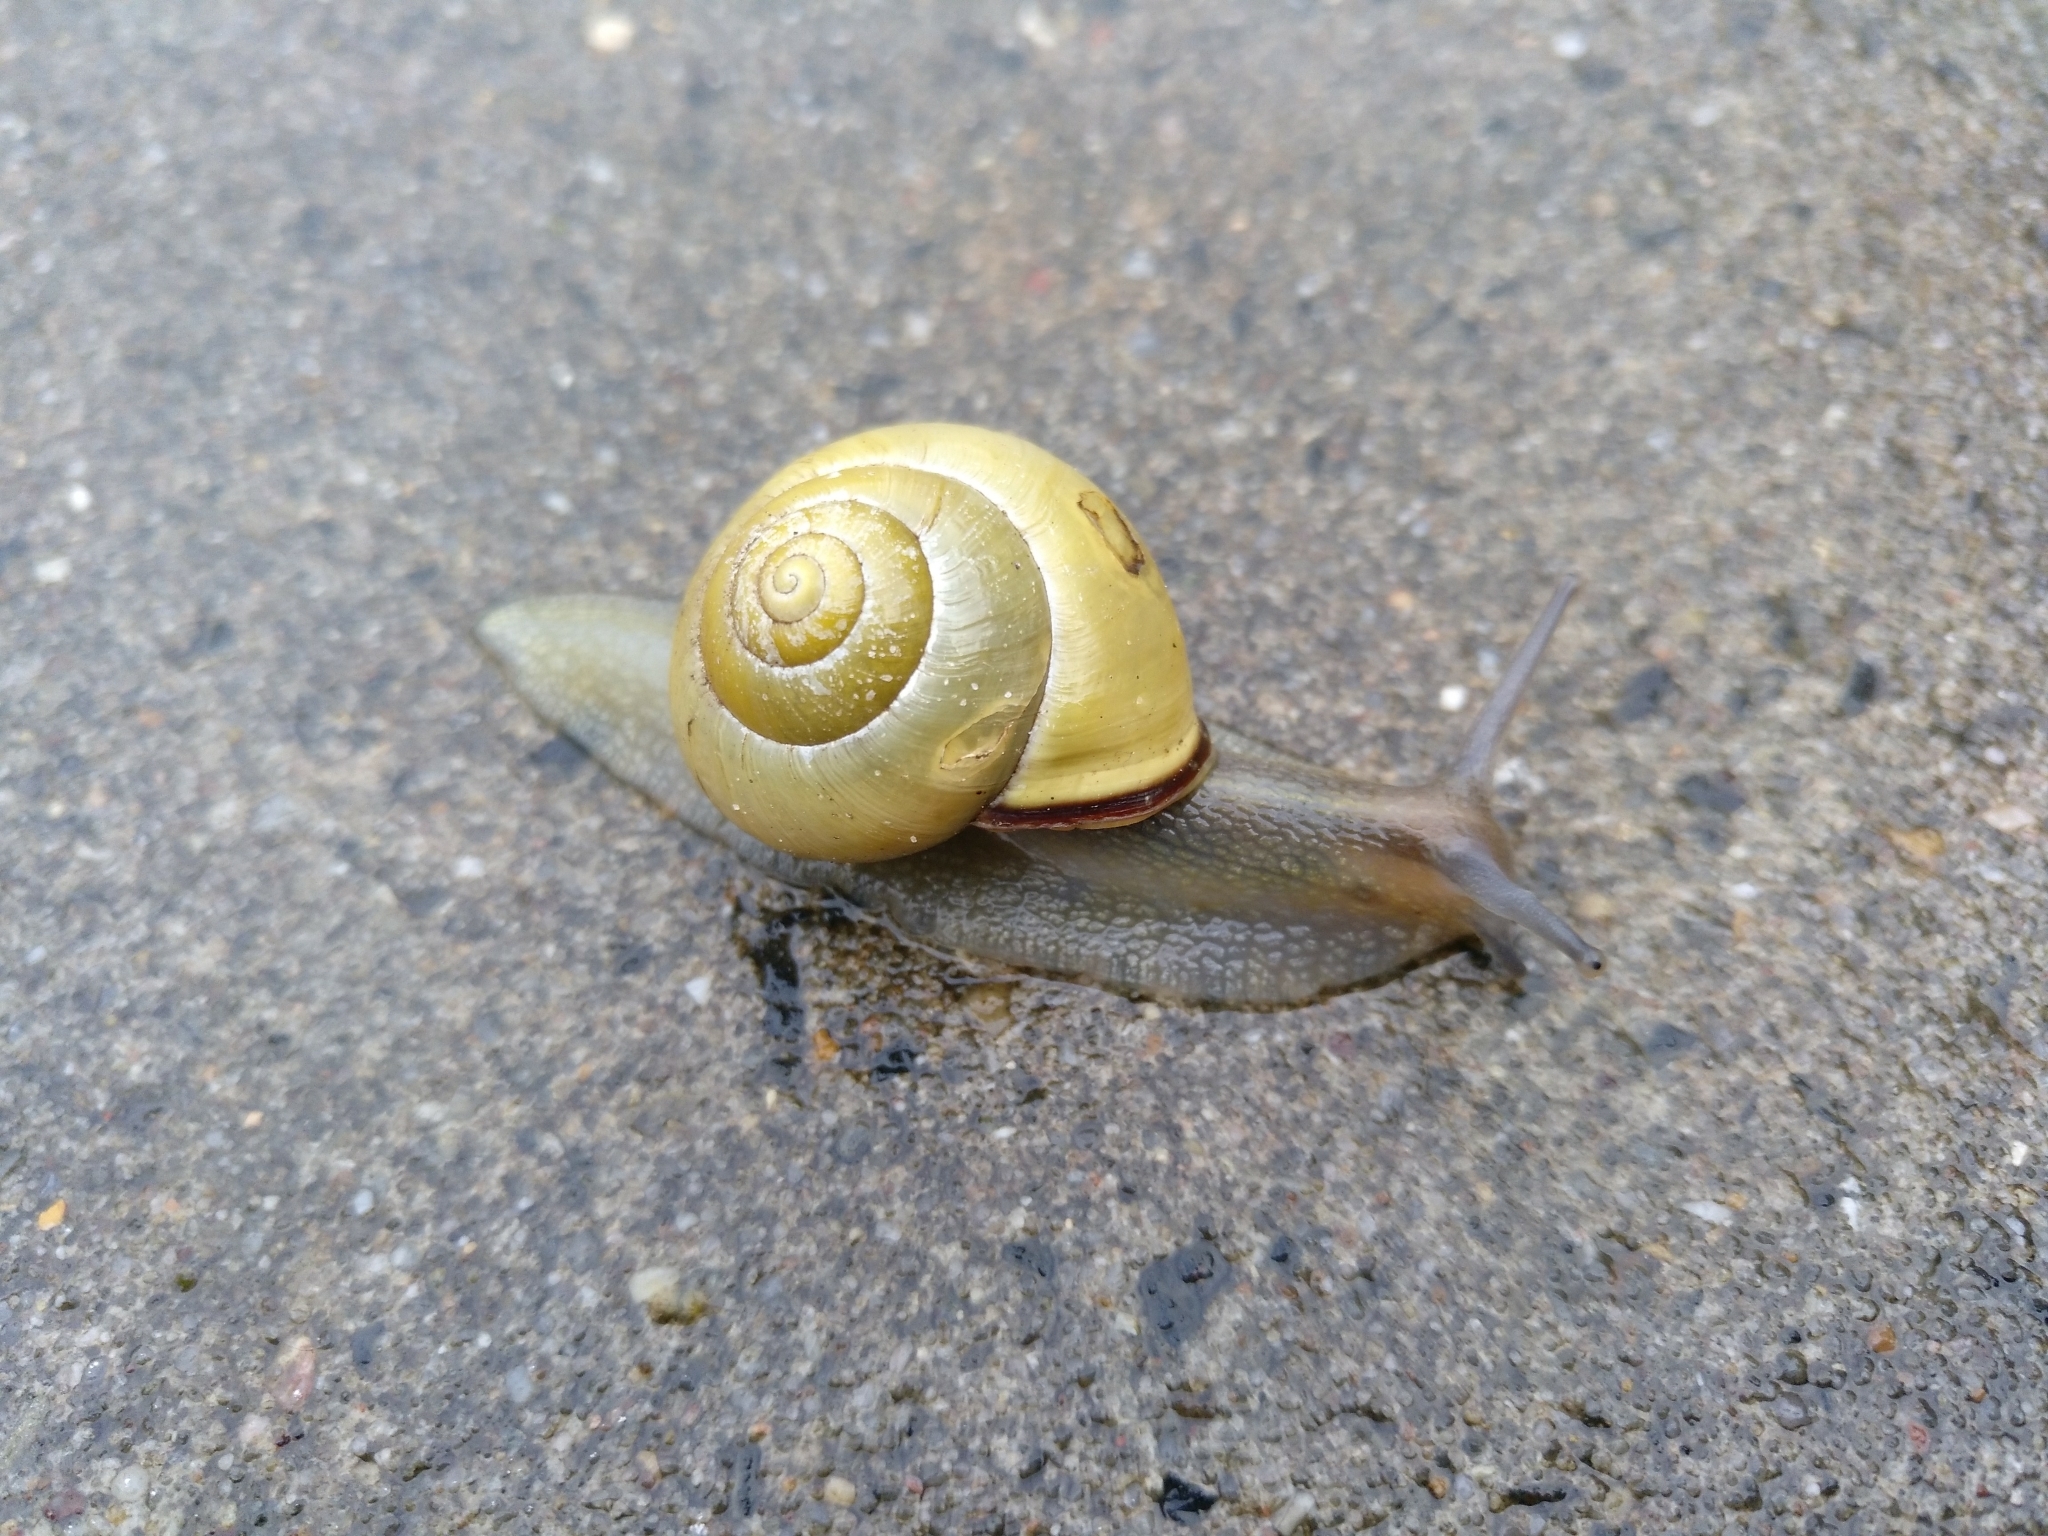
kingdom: Animalia
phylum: Mollusca
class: Gastropoda
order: Stylommatophora
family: Helicidae
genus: Cepaea
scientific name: Cepaea nemoralis
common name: Grovesnail
